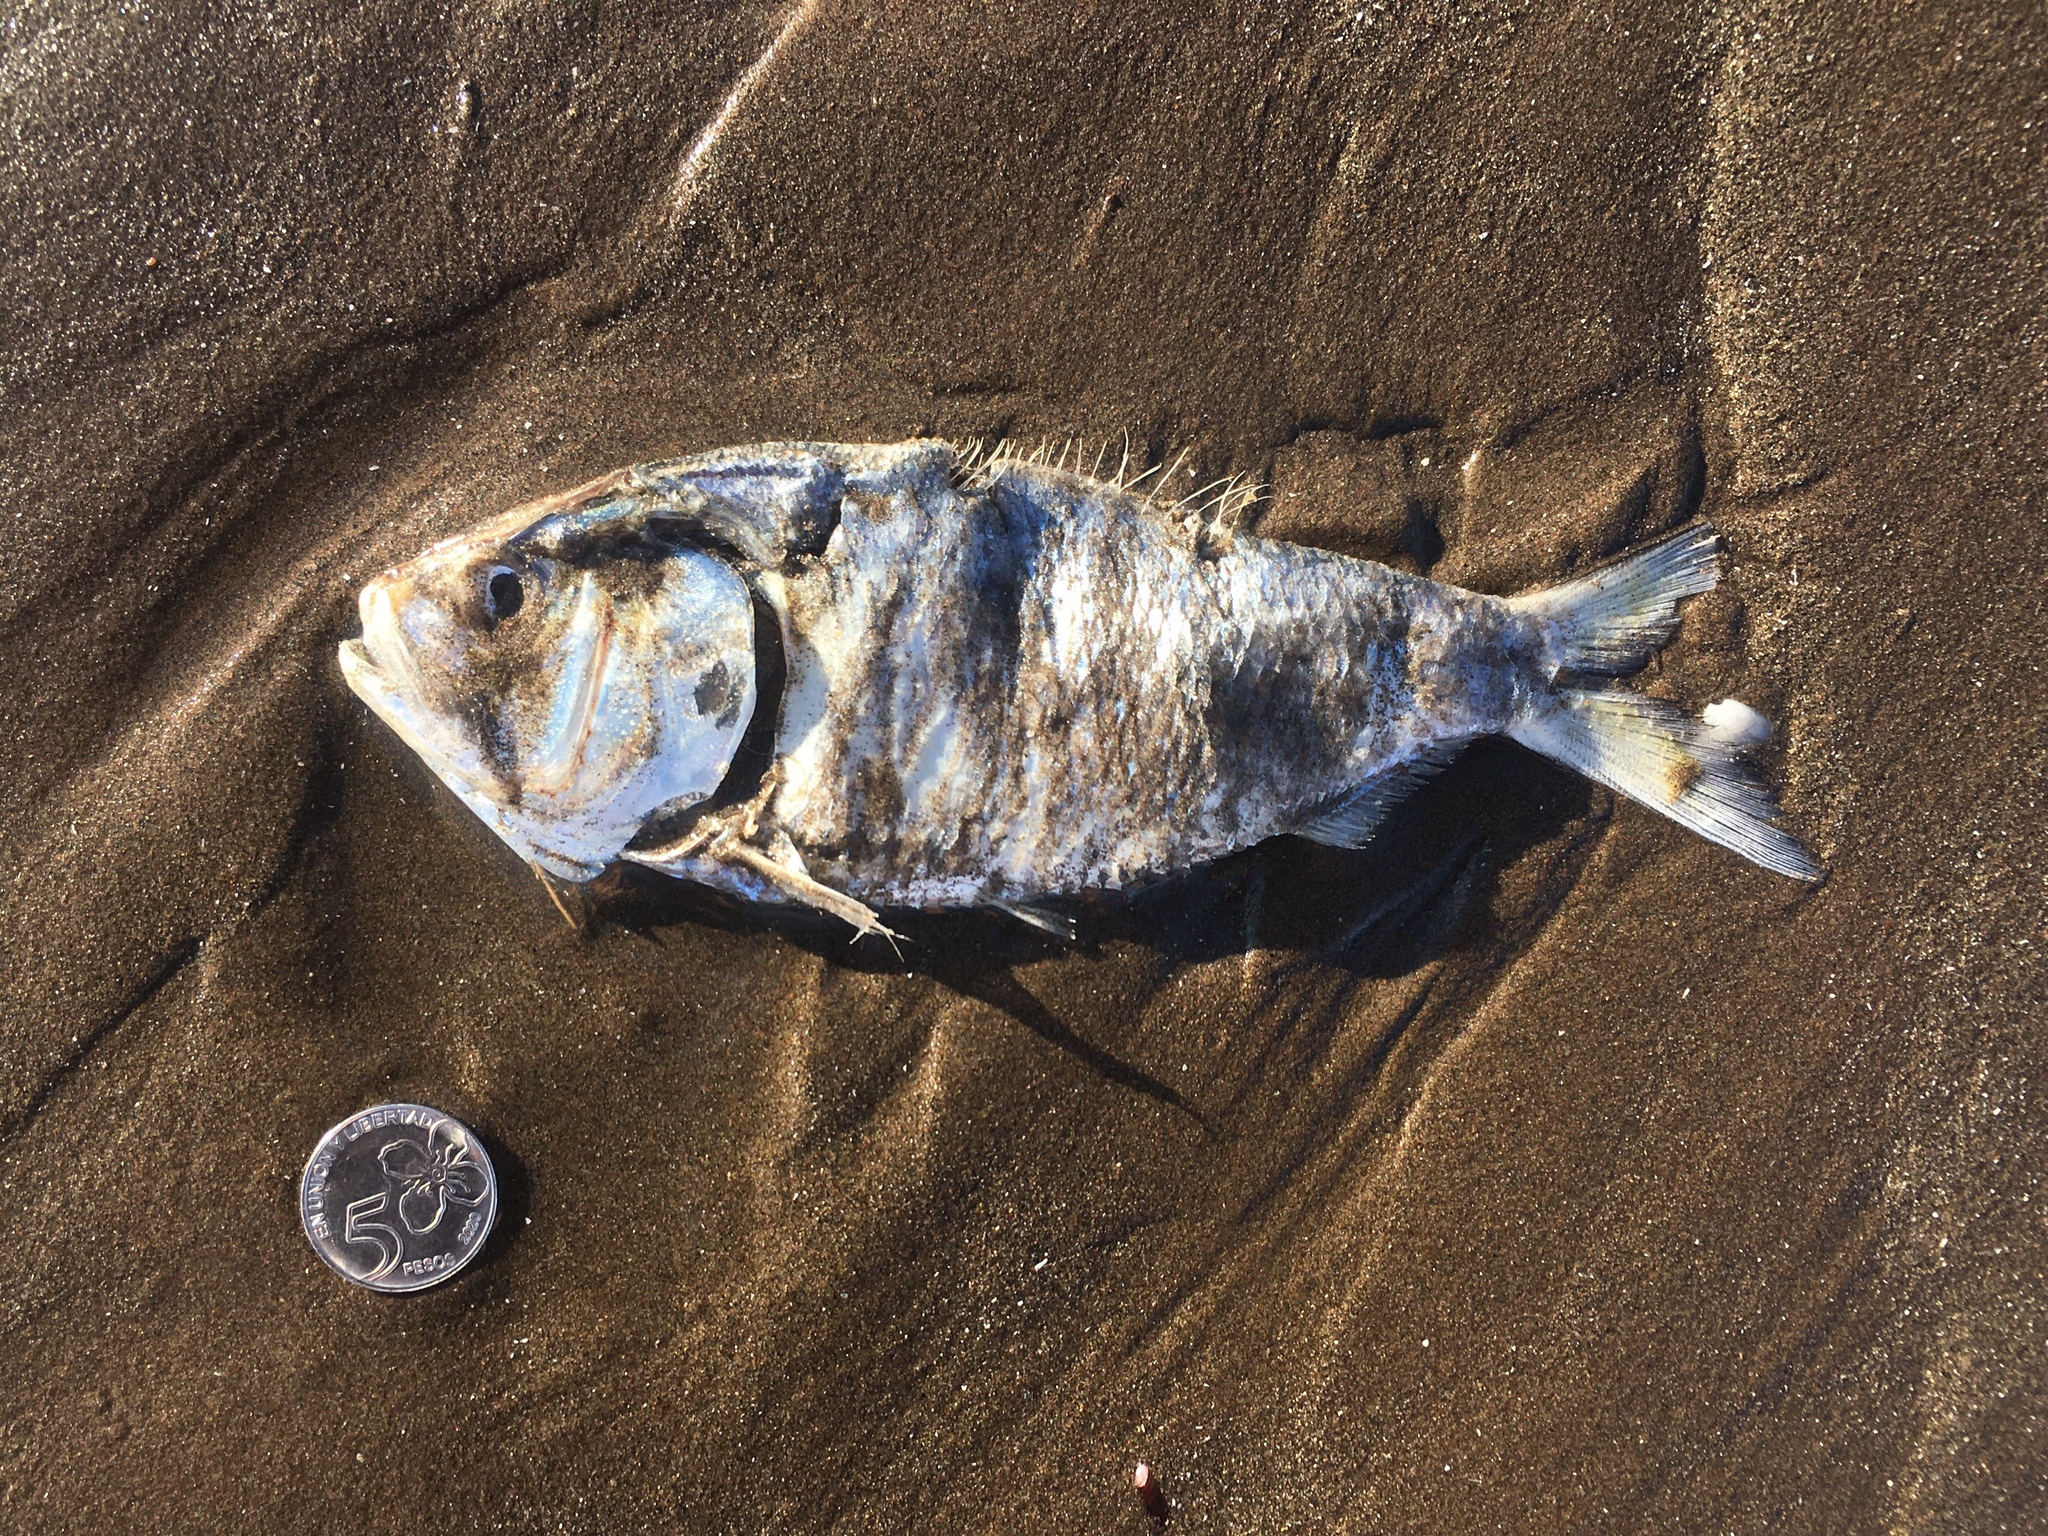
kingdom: Animalia
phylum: Chordata
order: Clupeiformes
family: Clupeidae
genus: Brevoortia
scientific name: Brevoortia aurea
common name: Brazilian menhaden
